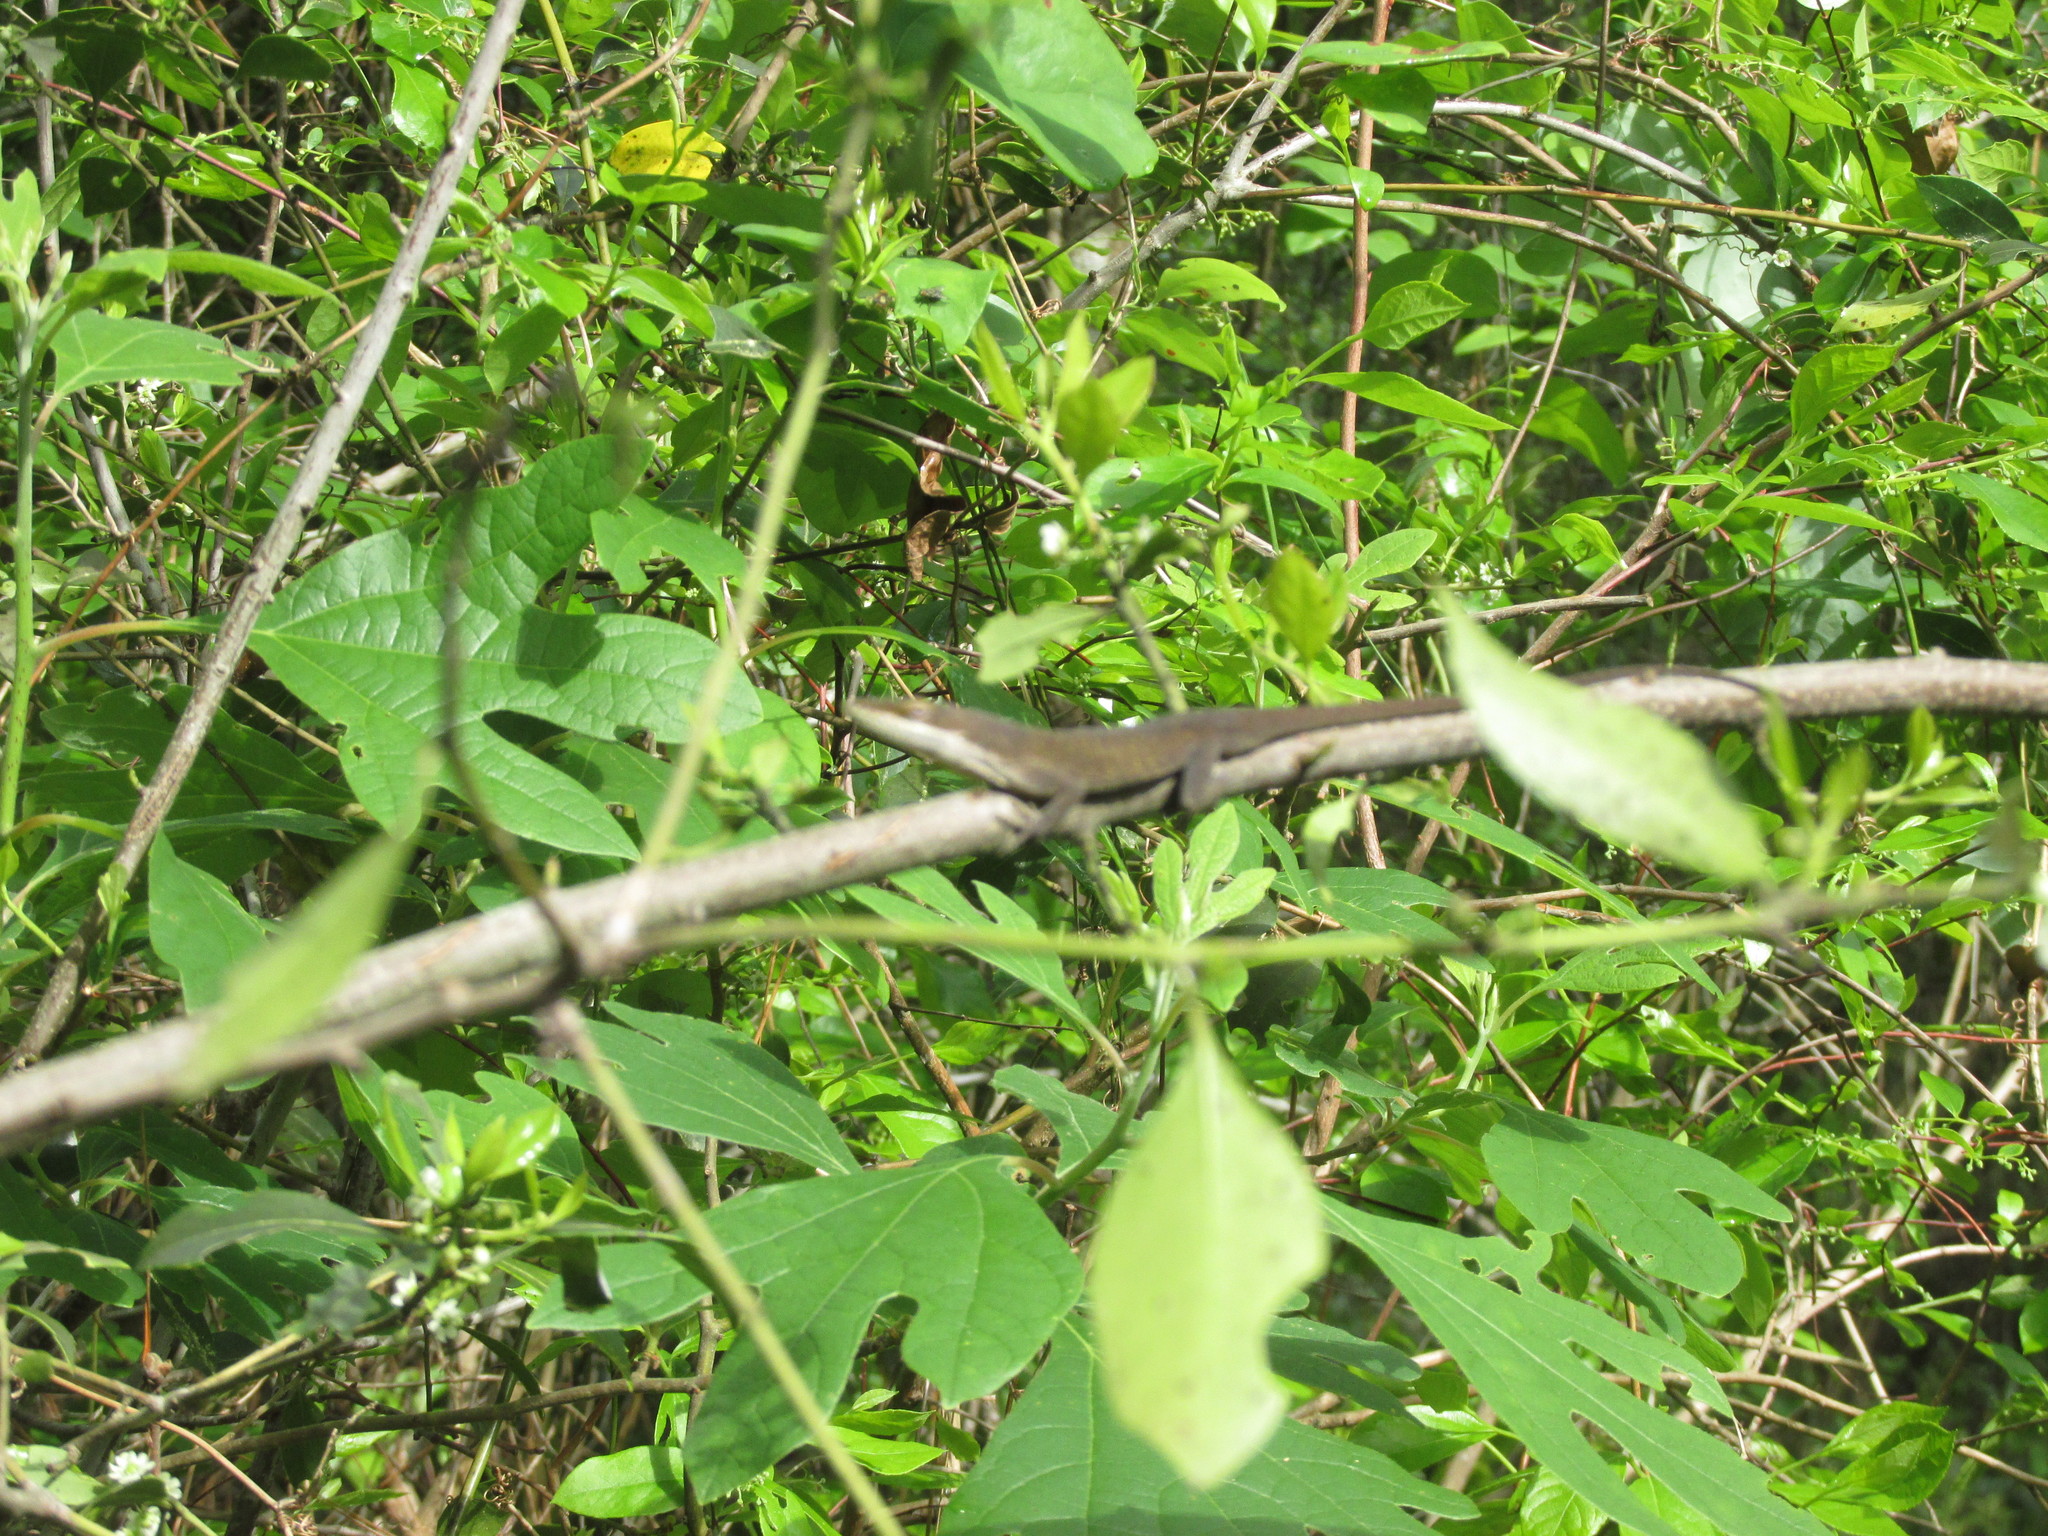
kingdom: Animalia
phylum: Chordata
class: Squamata
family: Dactyloidae
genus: Anolis
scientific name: Anolis carolinensis
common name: Green anole
